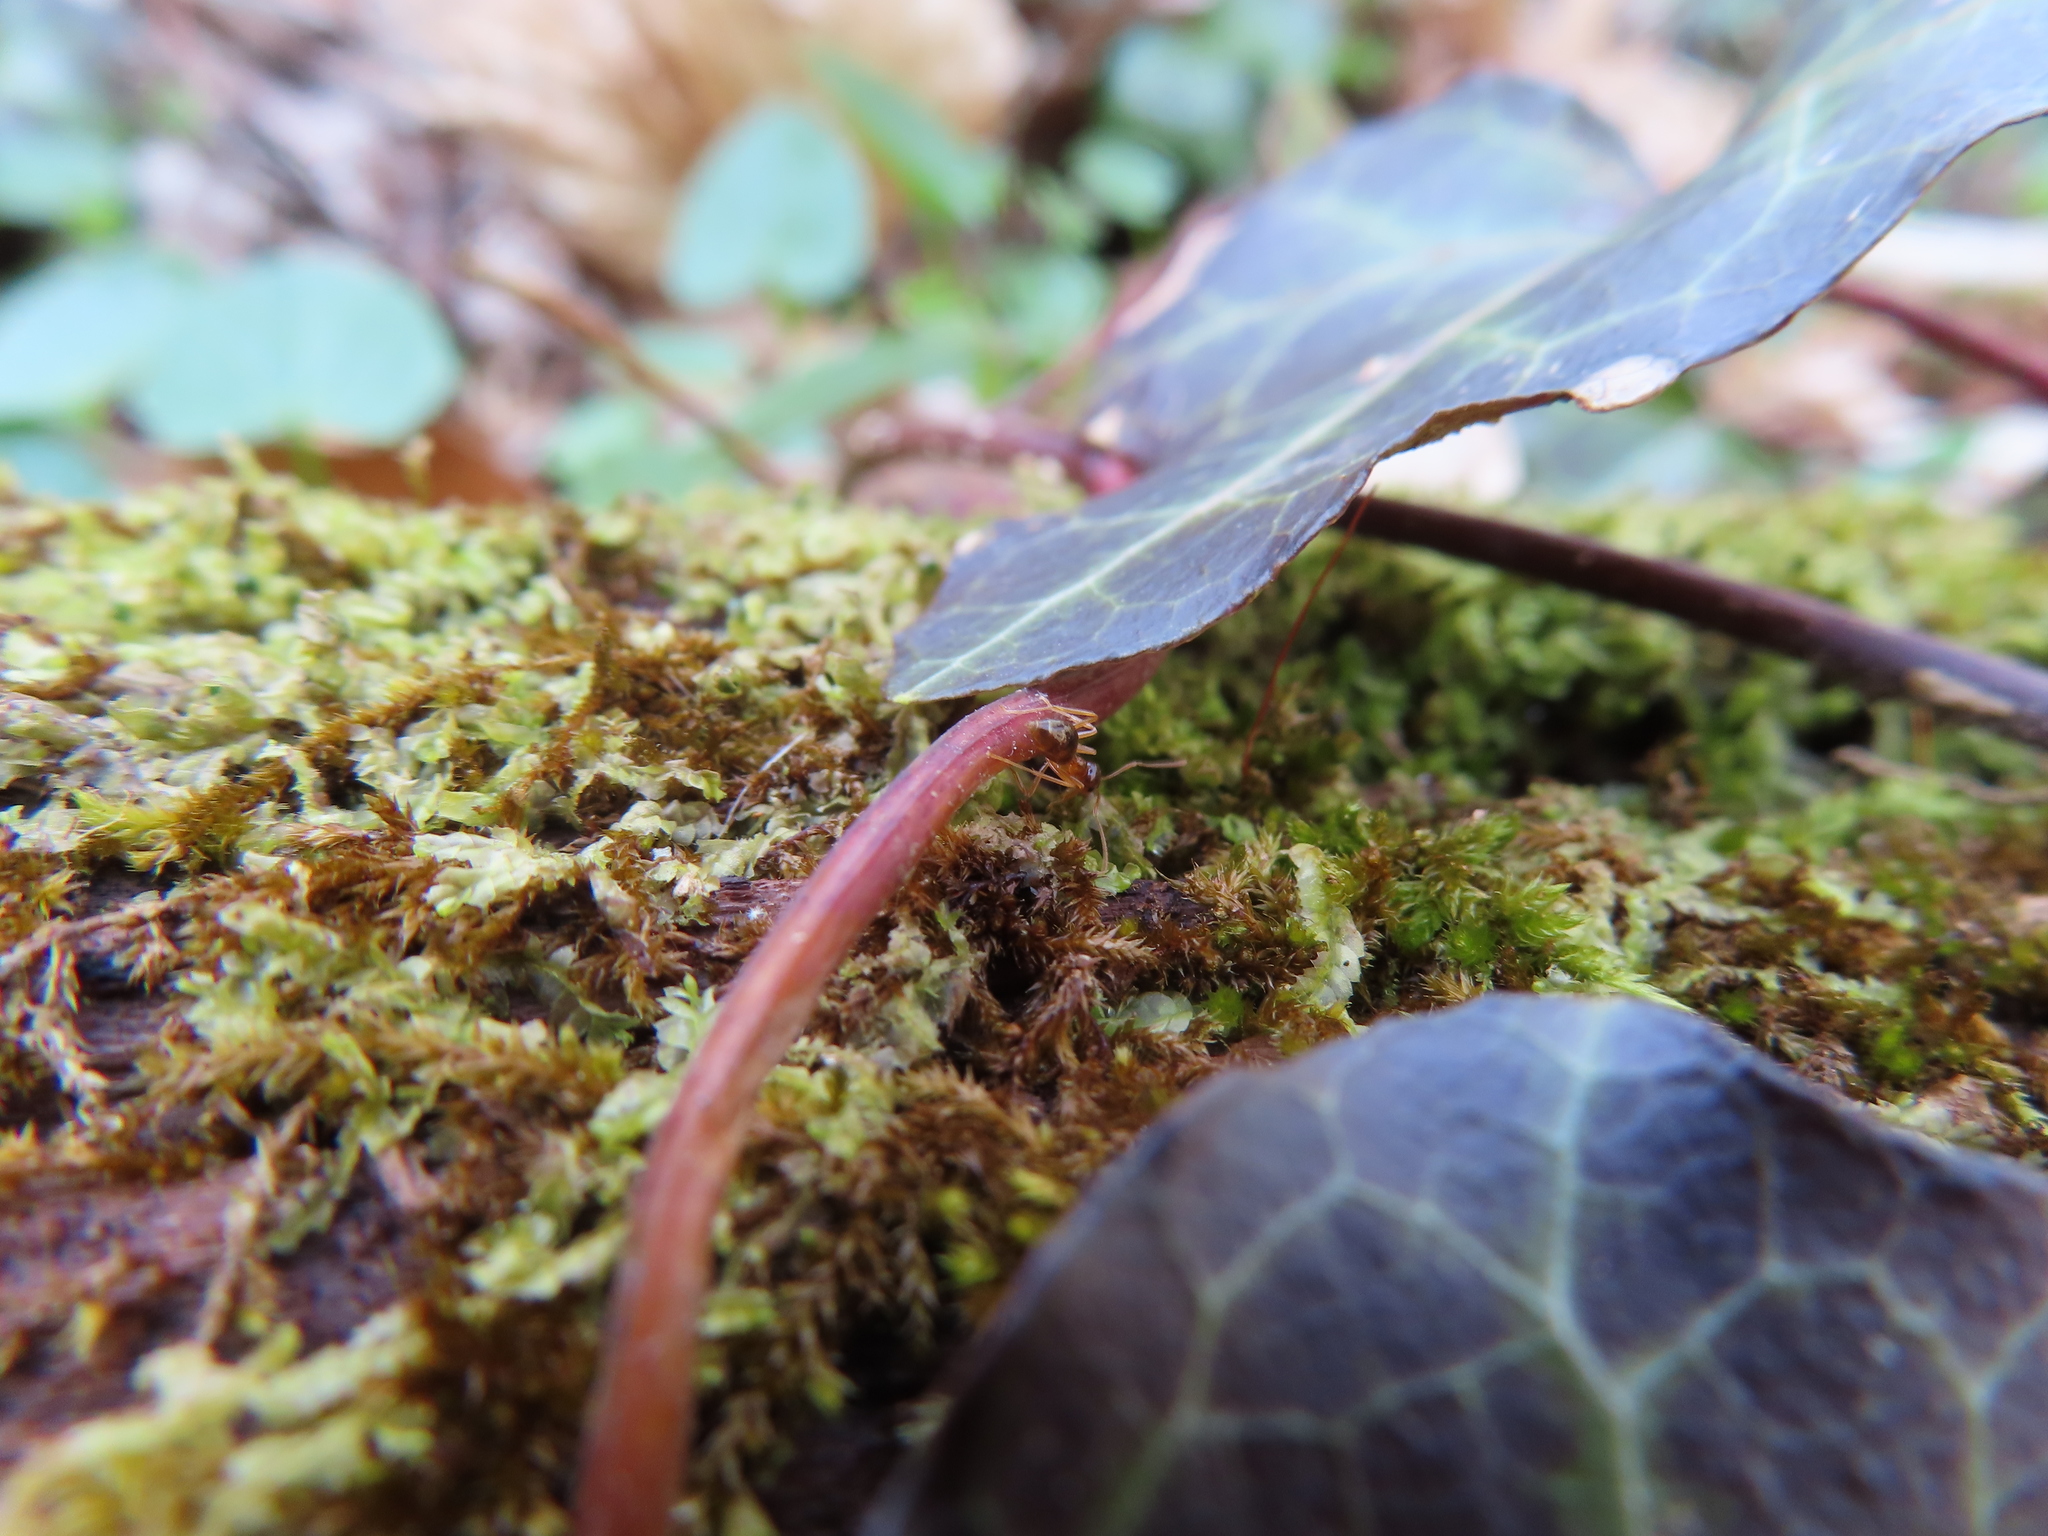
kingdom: Animalia
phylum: Arthropoda
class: Insecta
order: Hymenoptera
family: Formicidae
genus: Prenolepis
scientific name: Prenolepis imparis
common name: Small honey ant
